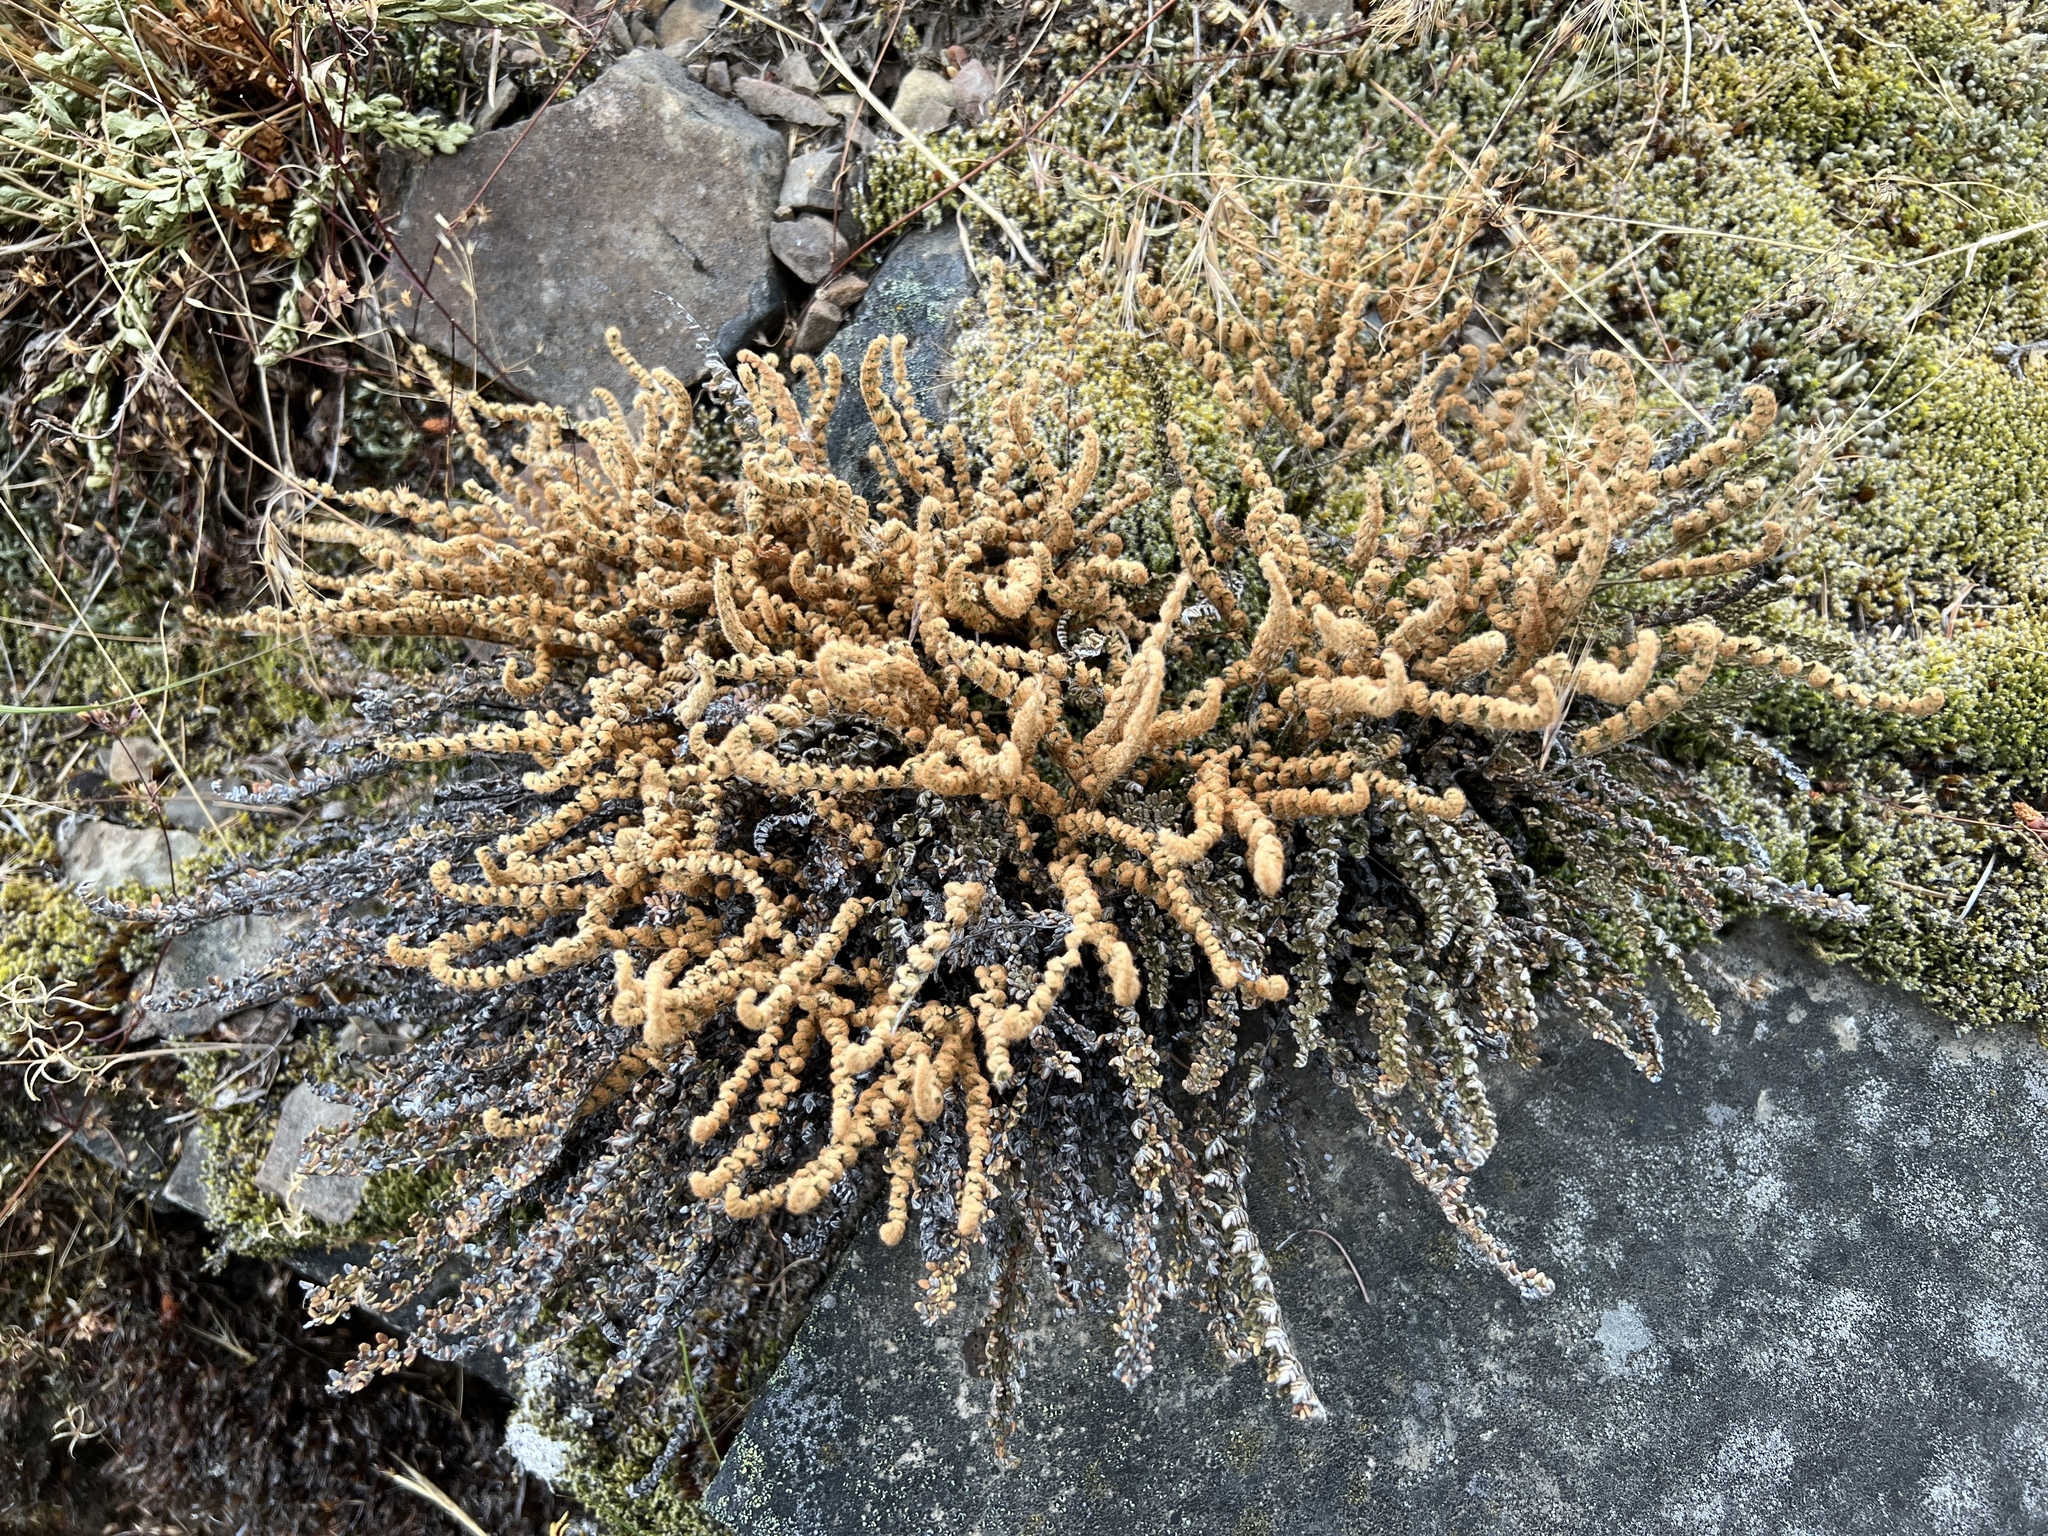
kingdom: Plantae
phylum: Tracheophyta
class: Polypodiopsida
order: Polypodiales
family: Pteridaceae
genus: Myriopteris
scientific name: Myriopteris gracillima
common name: Lace fern
